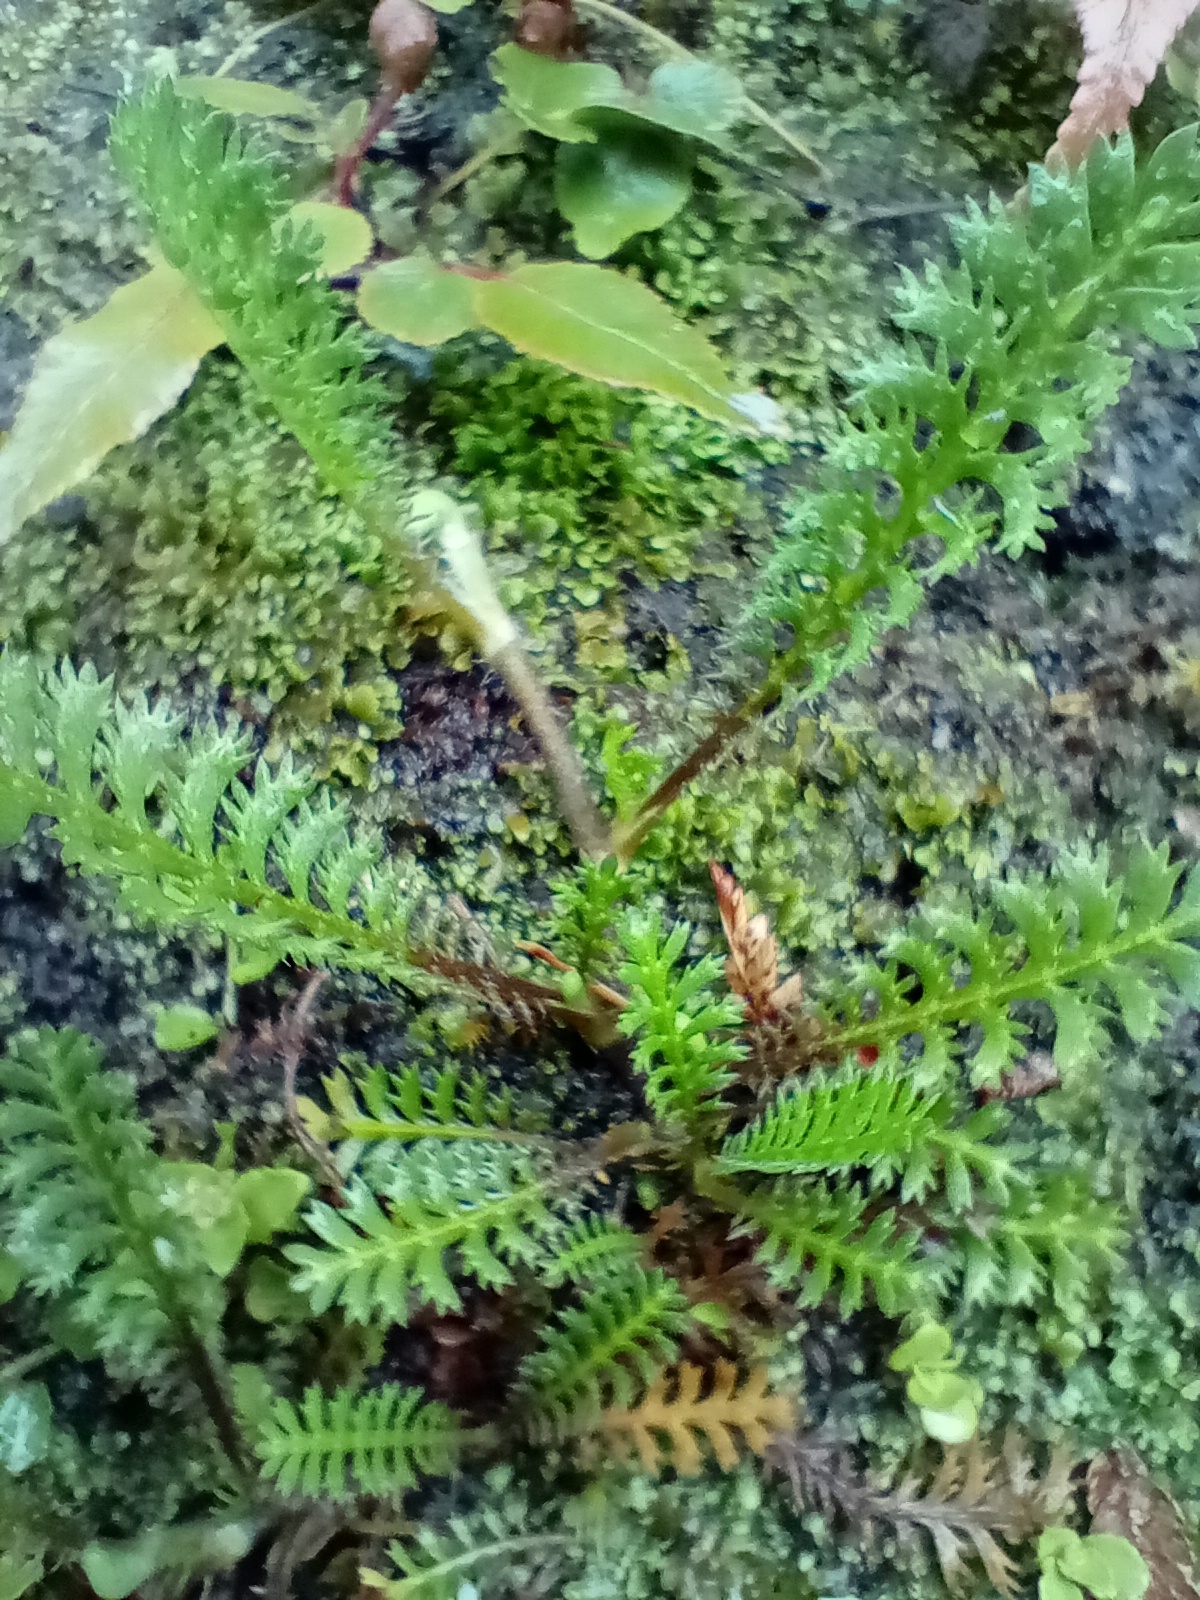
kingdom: Plantae
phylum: Tracheophyta
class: Magnoliopsida
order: Asterales
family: Asteraceae
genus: Leptinella
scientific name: Leptinella squalida
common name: New zealand brass-buttons
